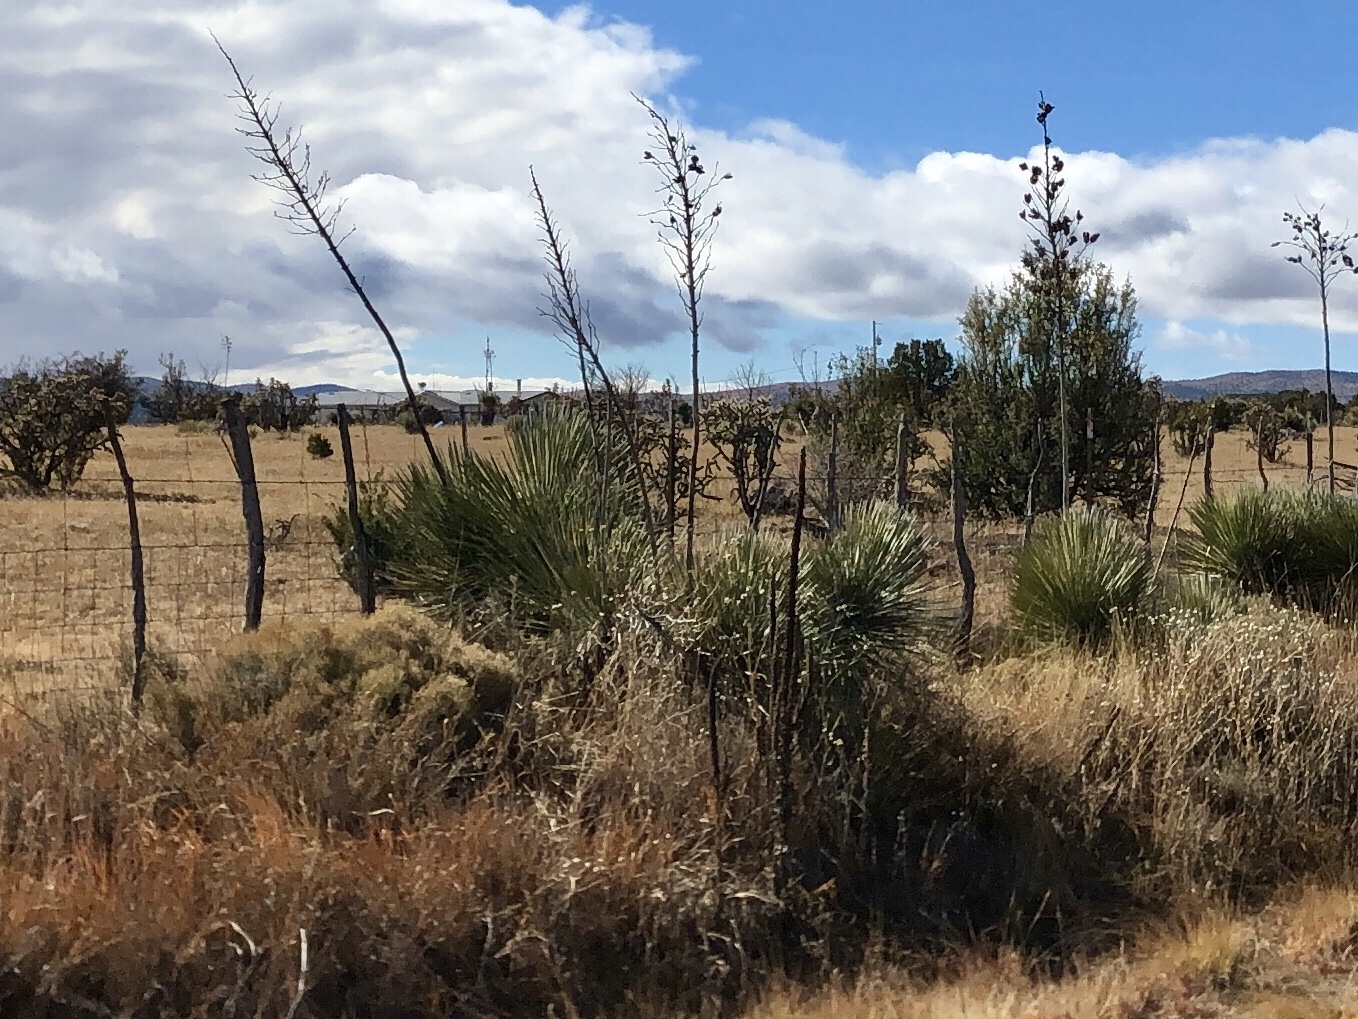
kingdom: Plantae
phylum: Tracheophyta
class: Liliopsida
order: Asparagales
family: Asparagaceae
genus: Yucca
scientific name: Yucca elata
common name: Palmella
